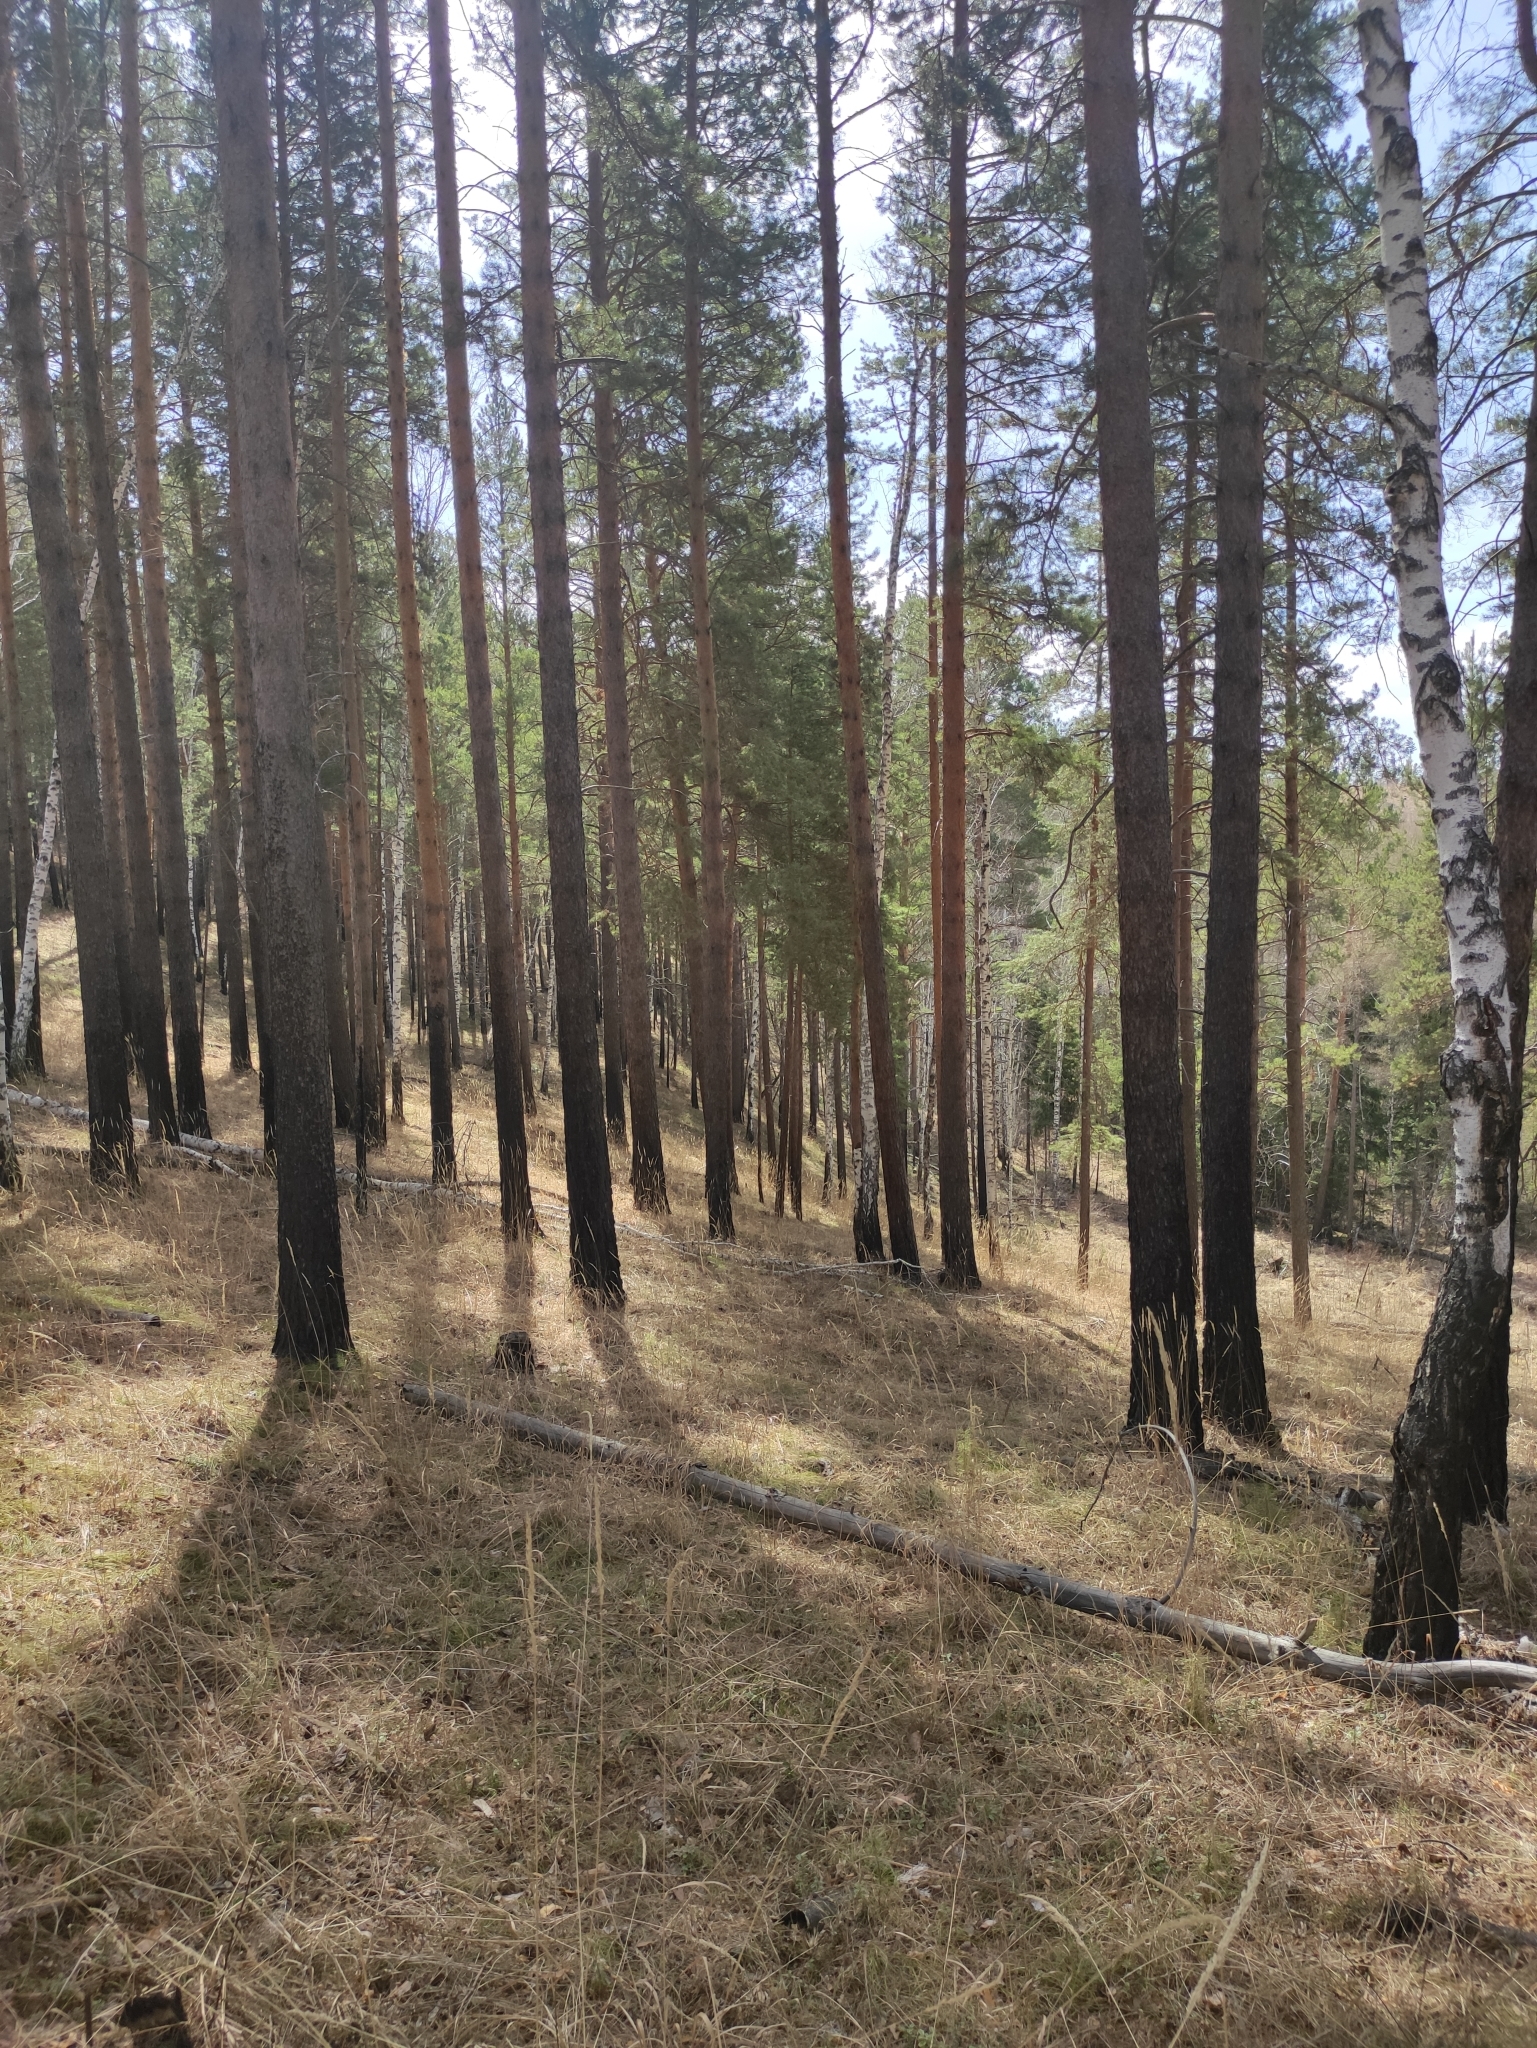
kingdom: Plantae
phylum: Tracheophyta
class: Pinopsida
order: Pinales
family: Pinaceae
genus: Pinus
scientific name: Pinus sylvestris
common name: Scots pine
